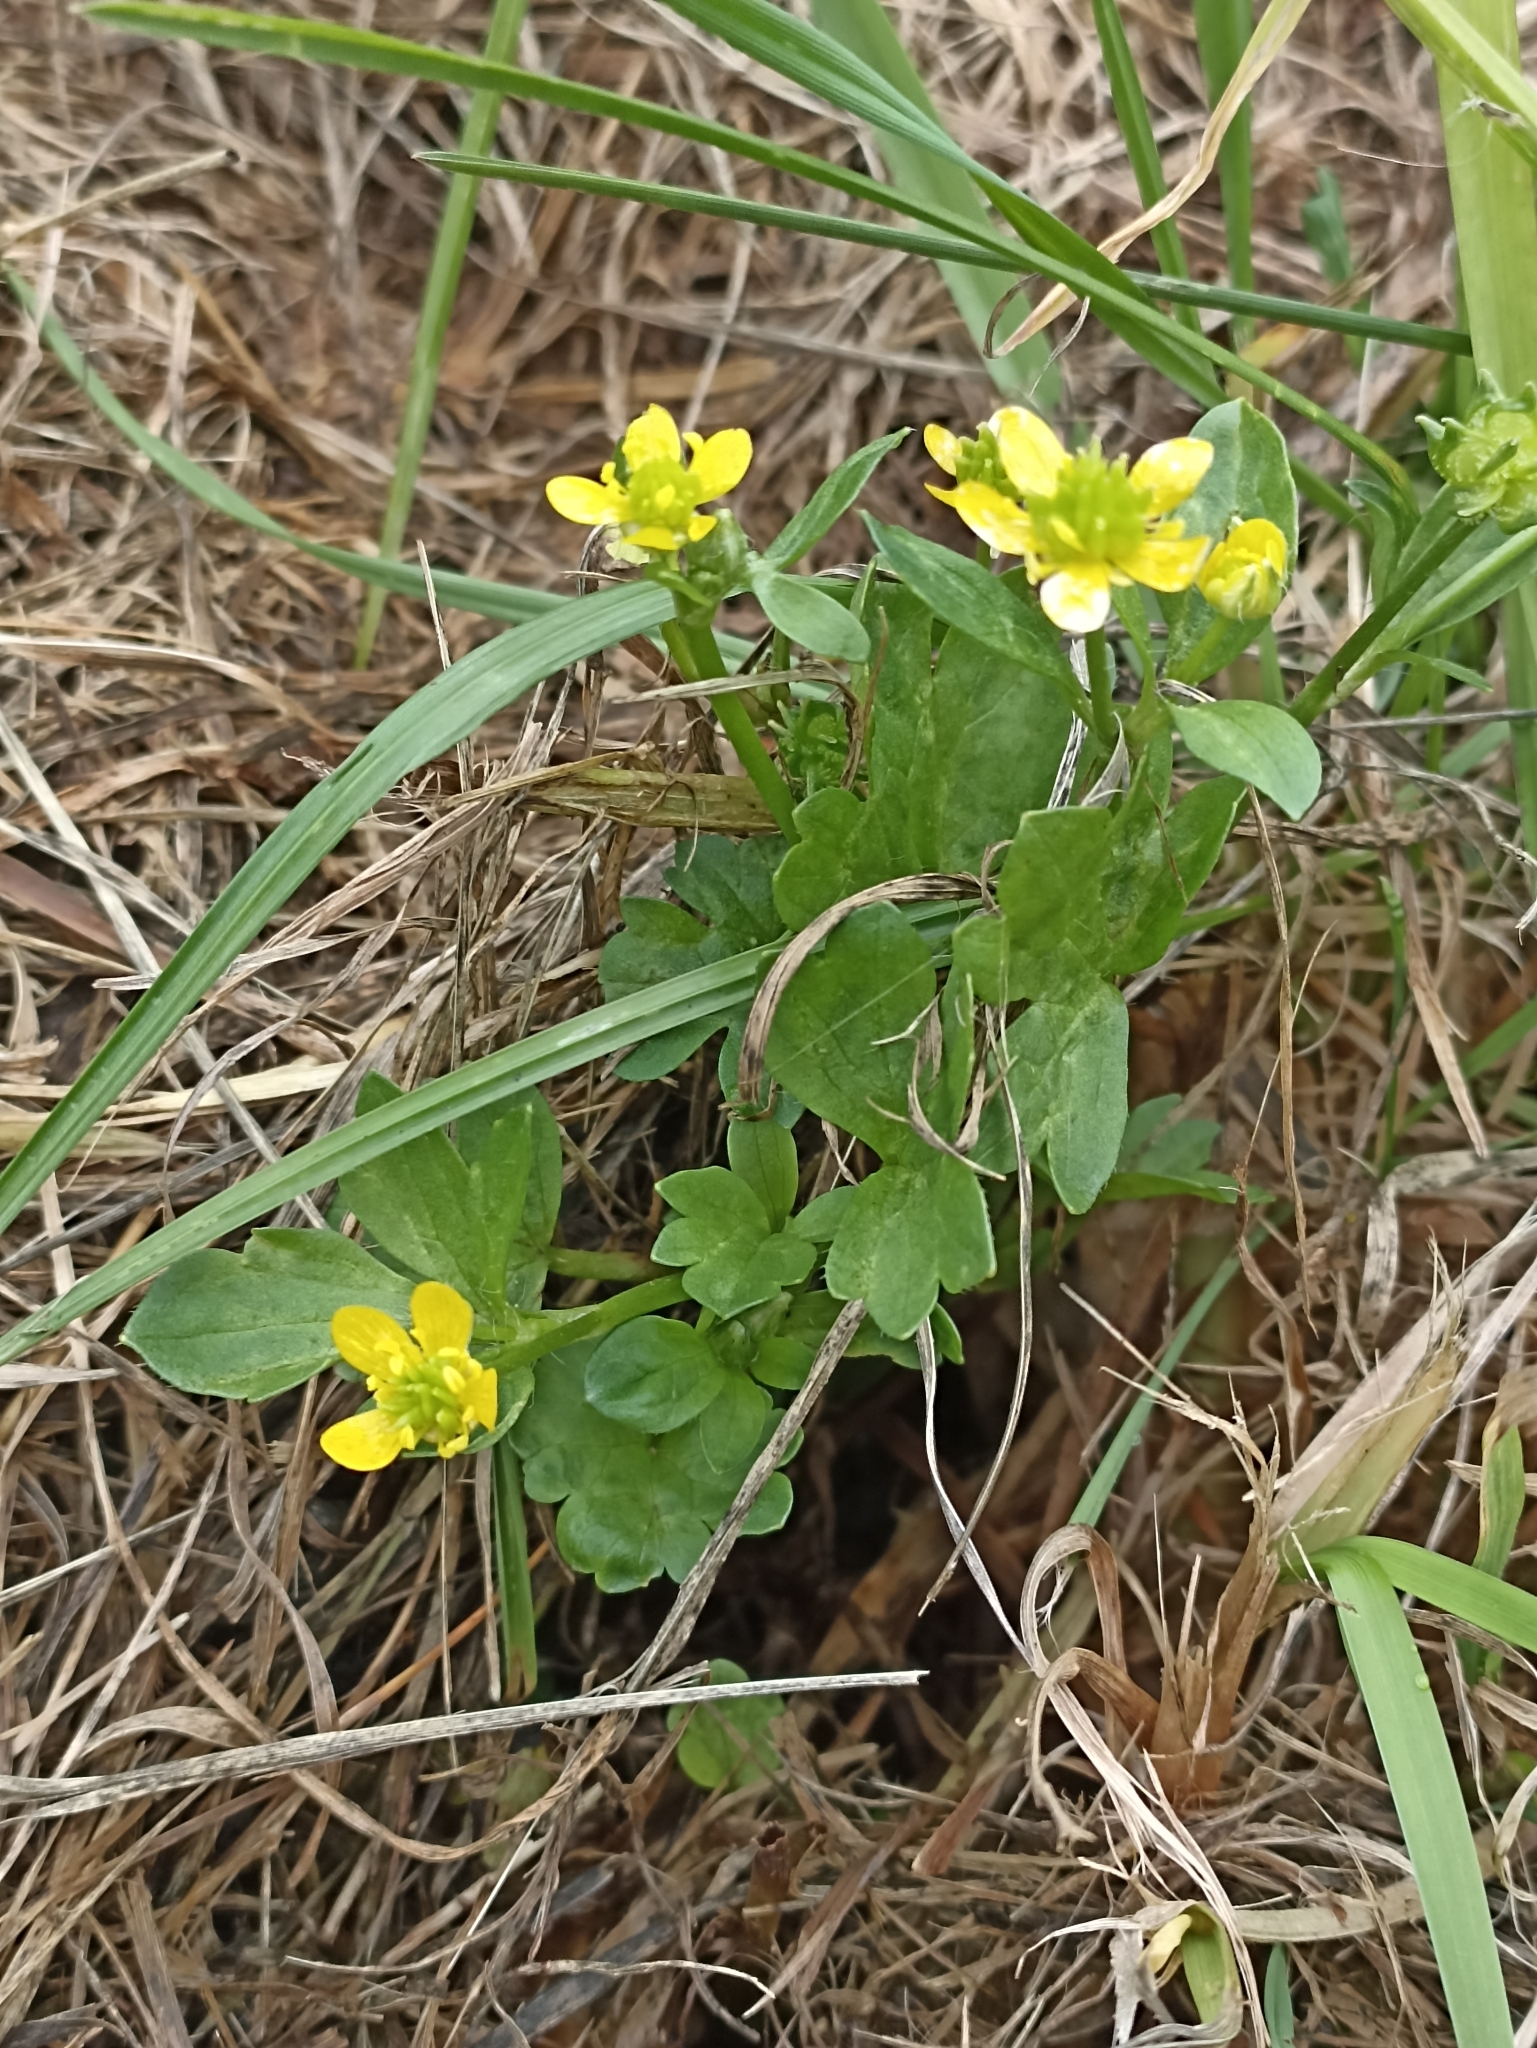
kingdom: Plantae
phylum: Tracheophyta
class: Magnoliopsida
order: Ranunculales
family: Ranunculaceae
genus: Ranunculus
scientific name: Ranunculus muricatus
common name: Rough-fruited buttercup
